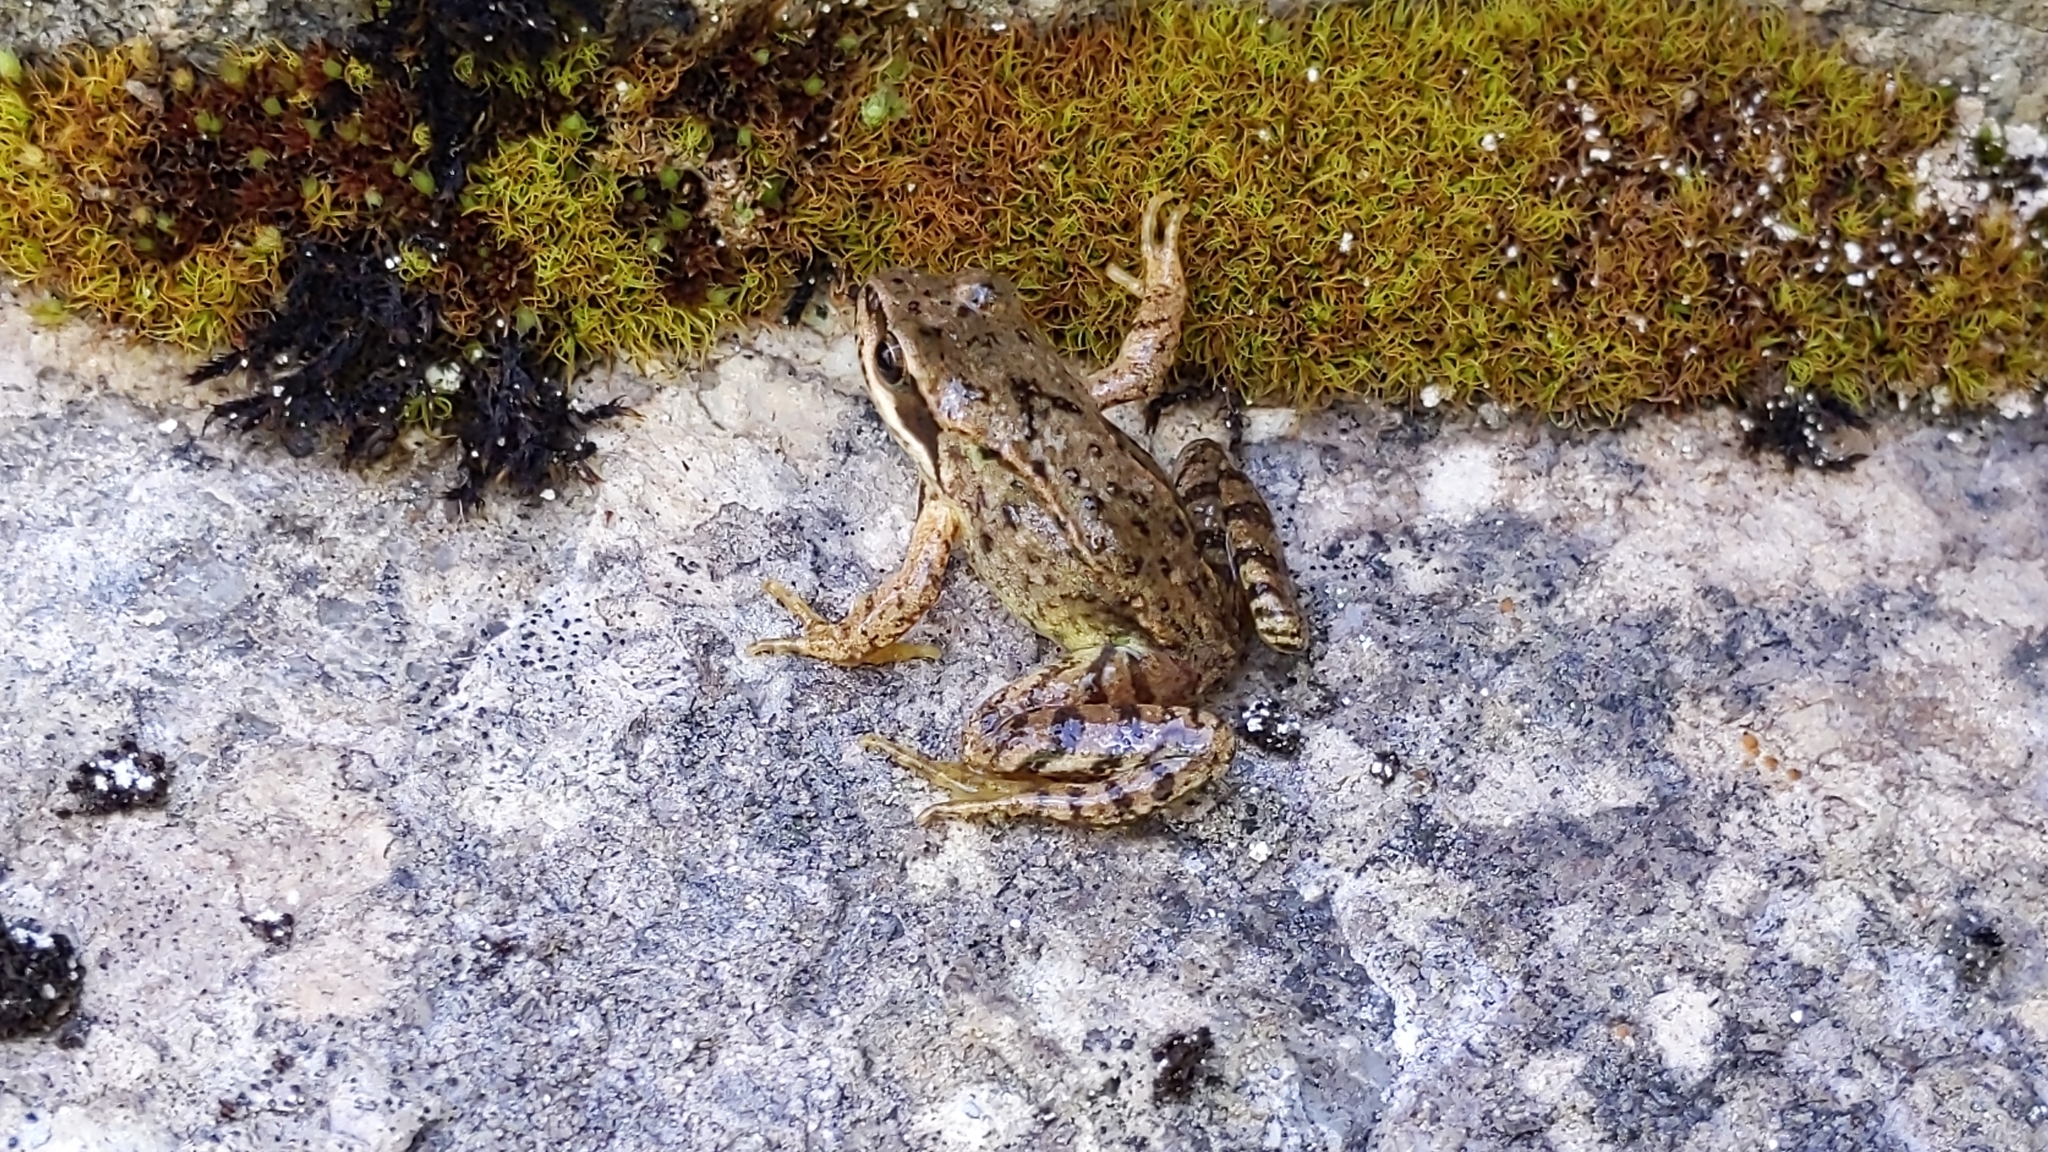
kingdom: Animalia
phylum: Chordata
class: Amphibia
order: Anura
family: Ranidae
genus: Rana
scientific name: Rana temporaria
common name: Common frog
